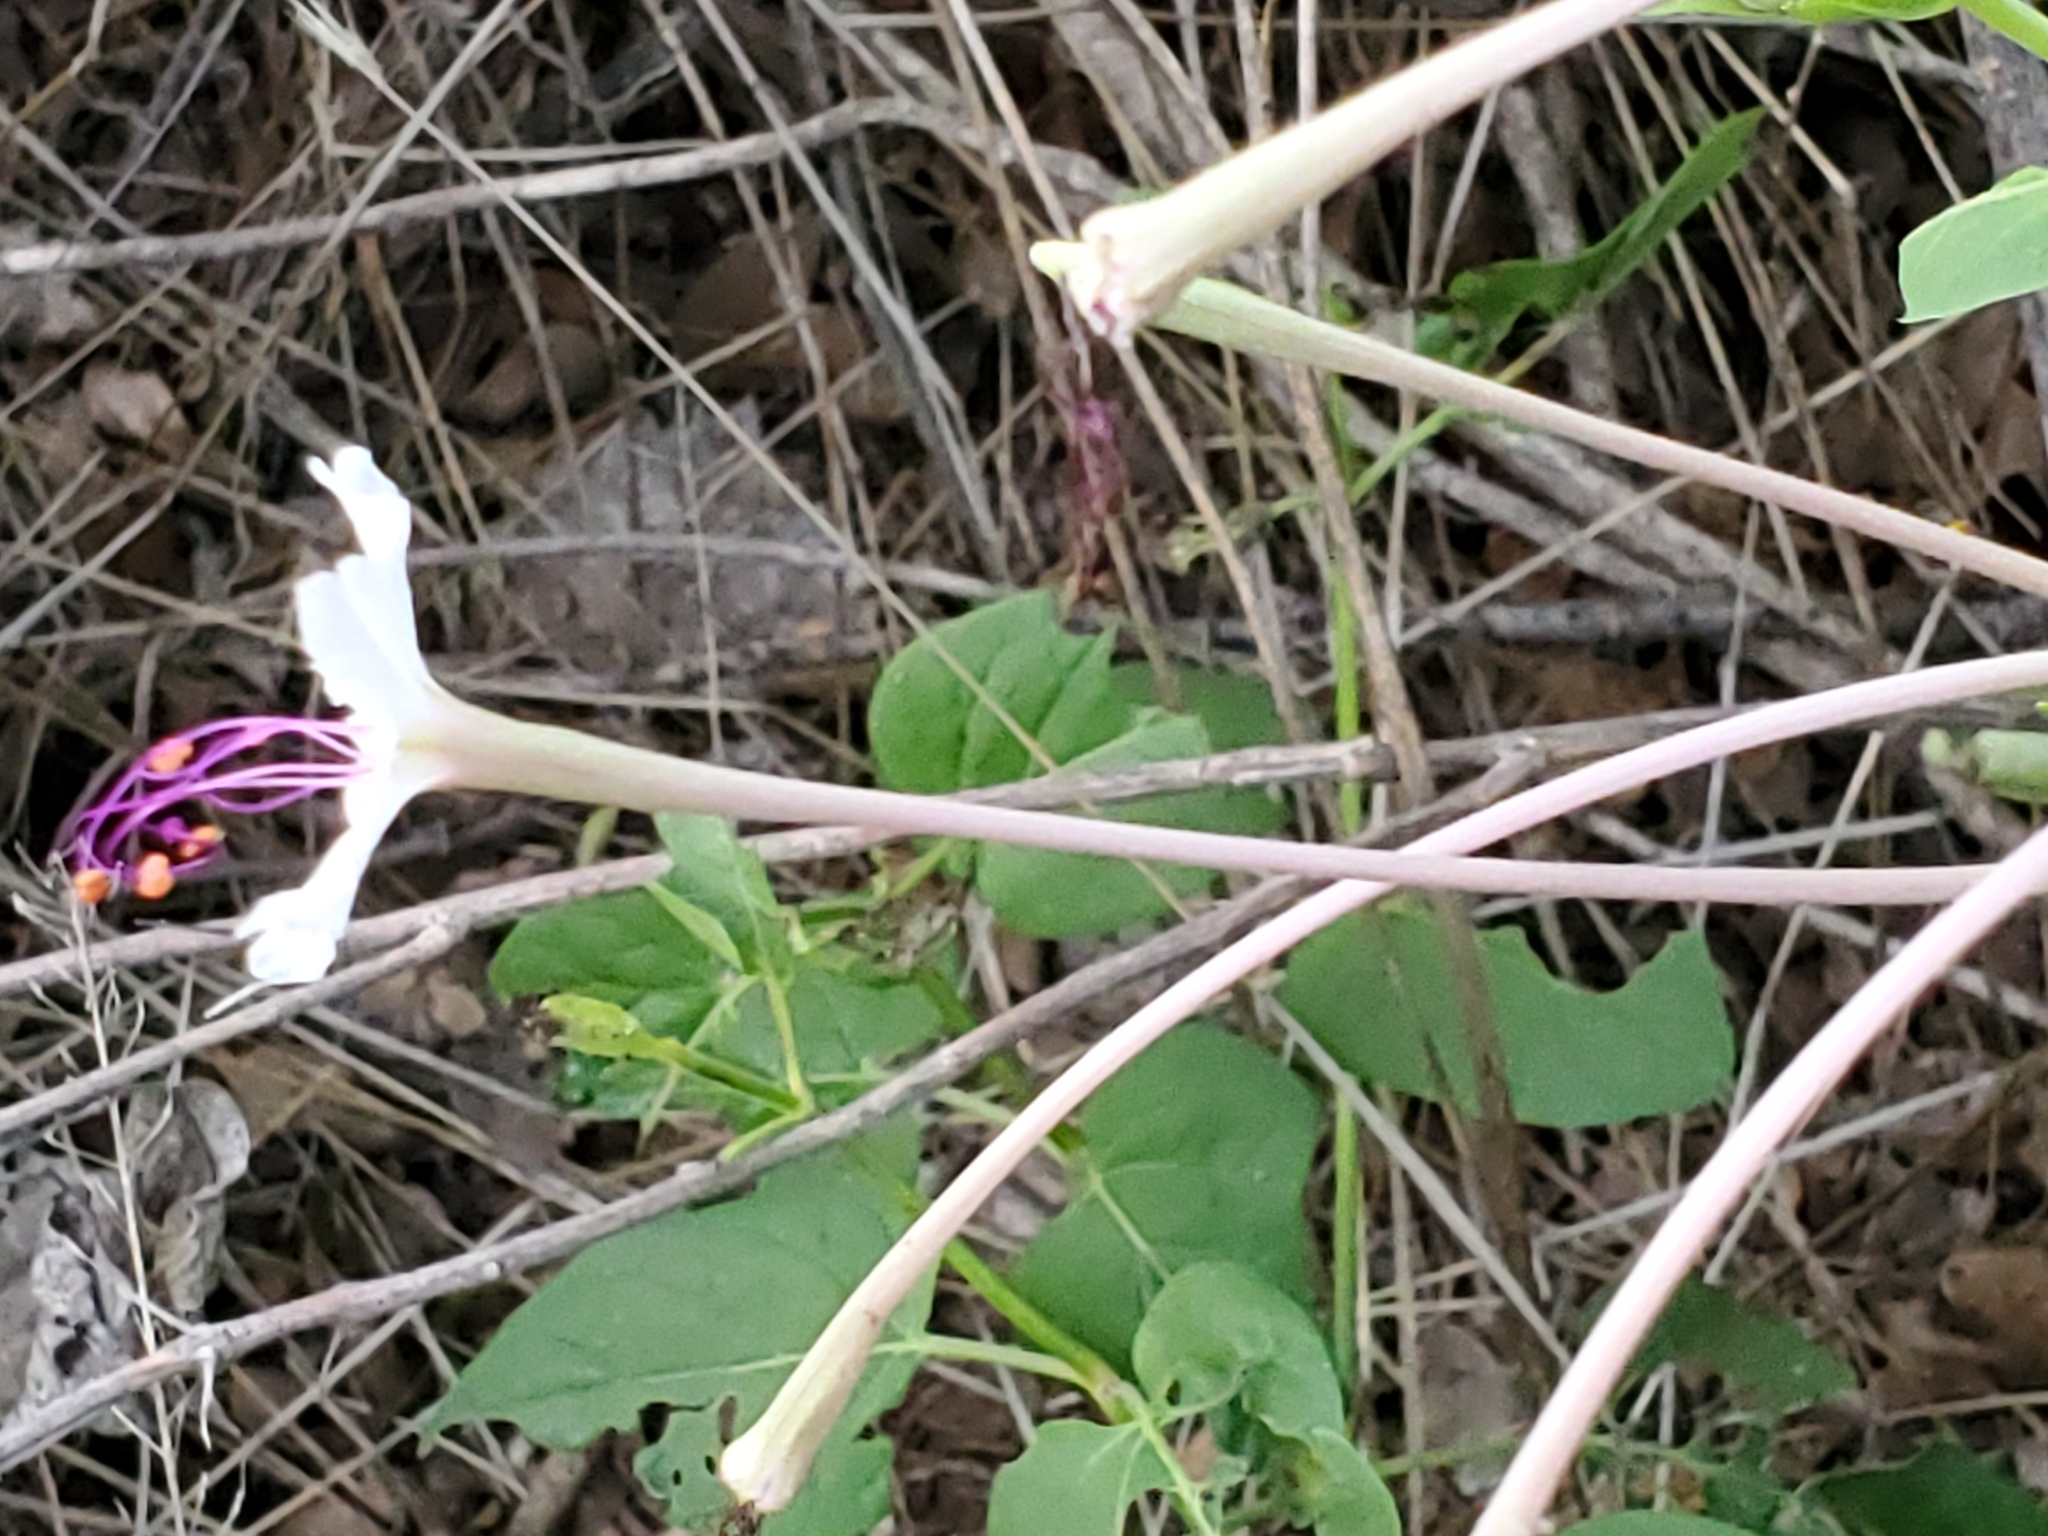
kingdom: Plantae
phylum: Tracheophyta
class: Magnoliopsida
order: Caryophyllales
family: Nyctaginaceae
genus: Mirabilis
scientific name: Mirabilis longiflora
